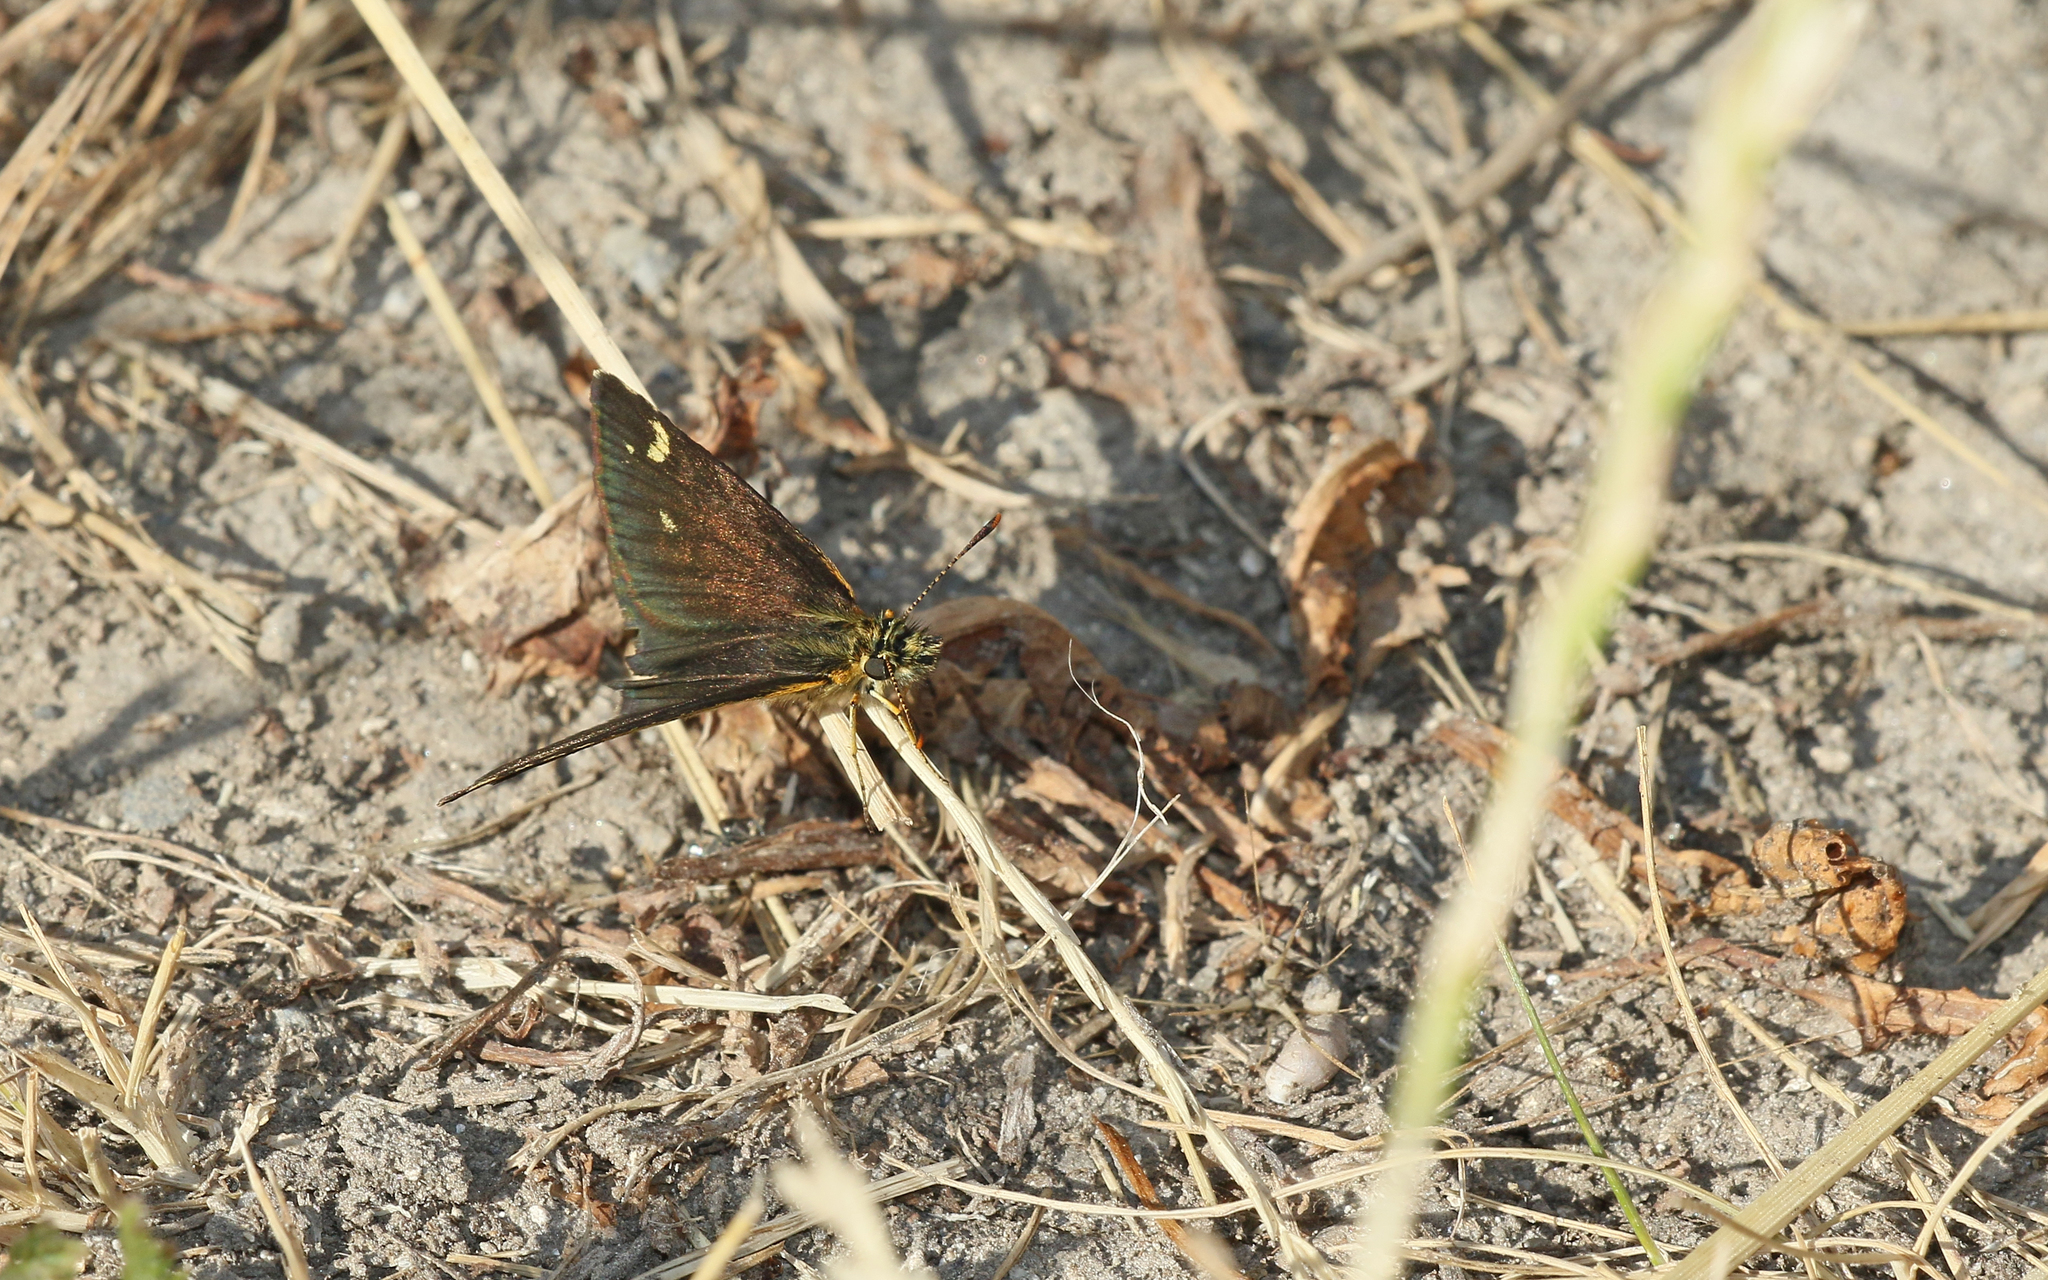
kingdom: Animalia
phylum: Arthropoda
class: Insecta
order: Lepidoptera
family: Hesperiidae
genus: Heteropterus
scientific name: Heteropterus morpheus
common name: Large chequered skipper
